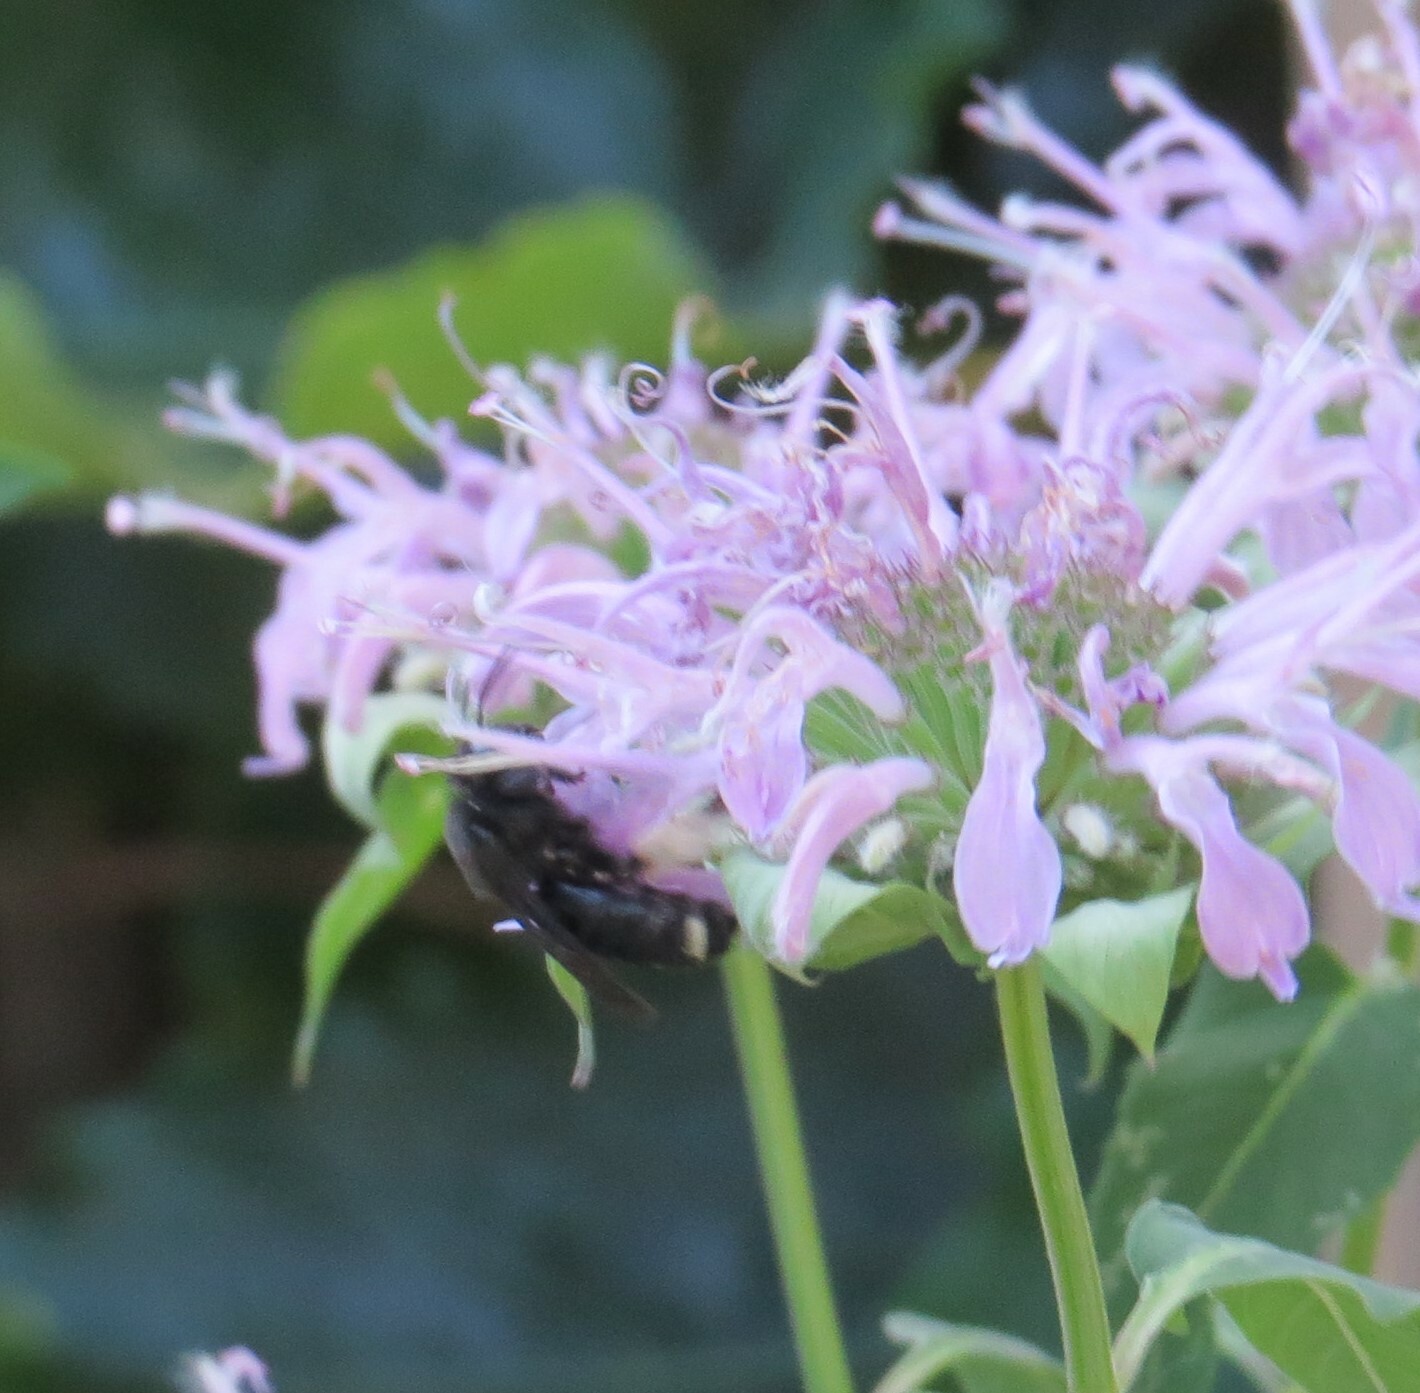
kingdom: Animalia
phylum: Arthropoda
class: Insecta
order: Hymenoptera
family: Apidae
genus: Melissodes
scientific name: Melissodes bimaculatus
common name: Two-spotted long-horned bee
